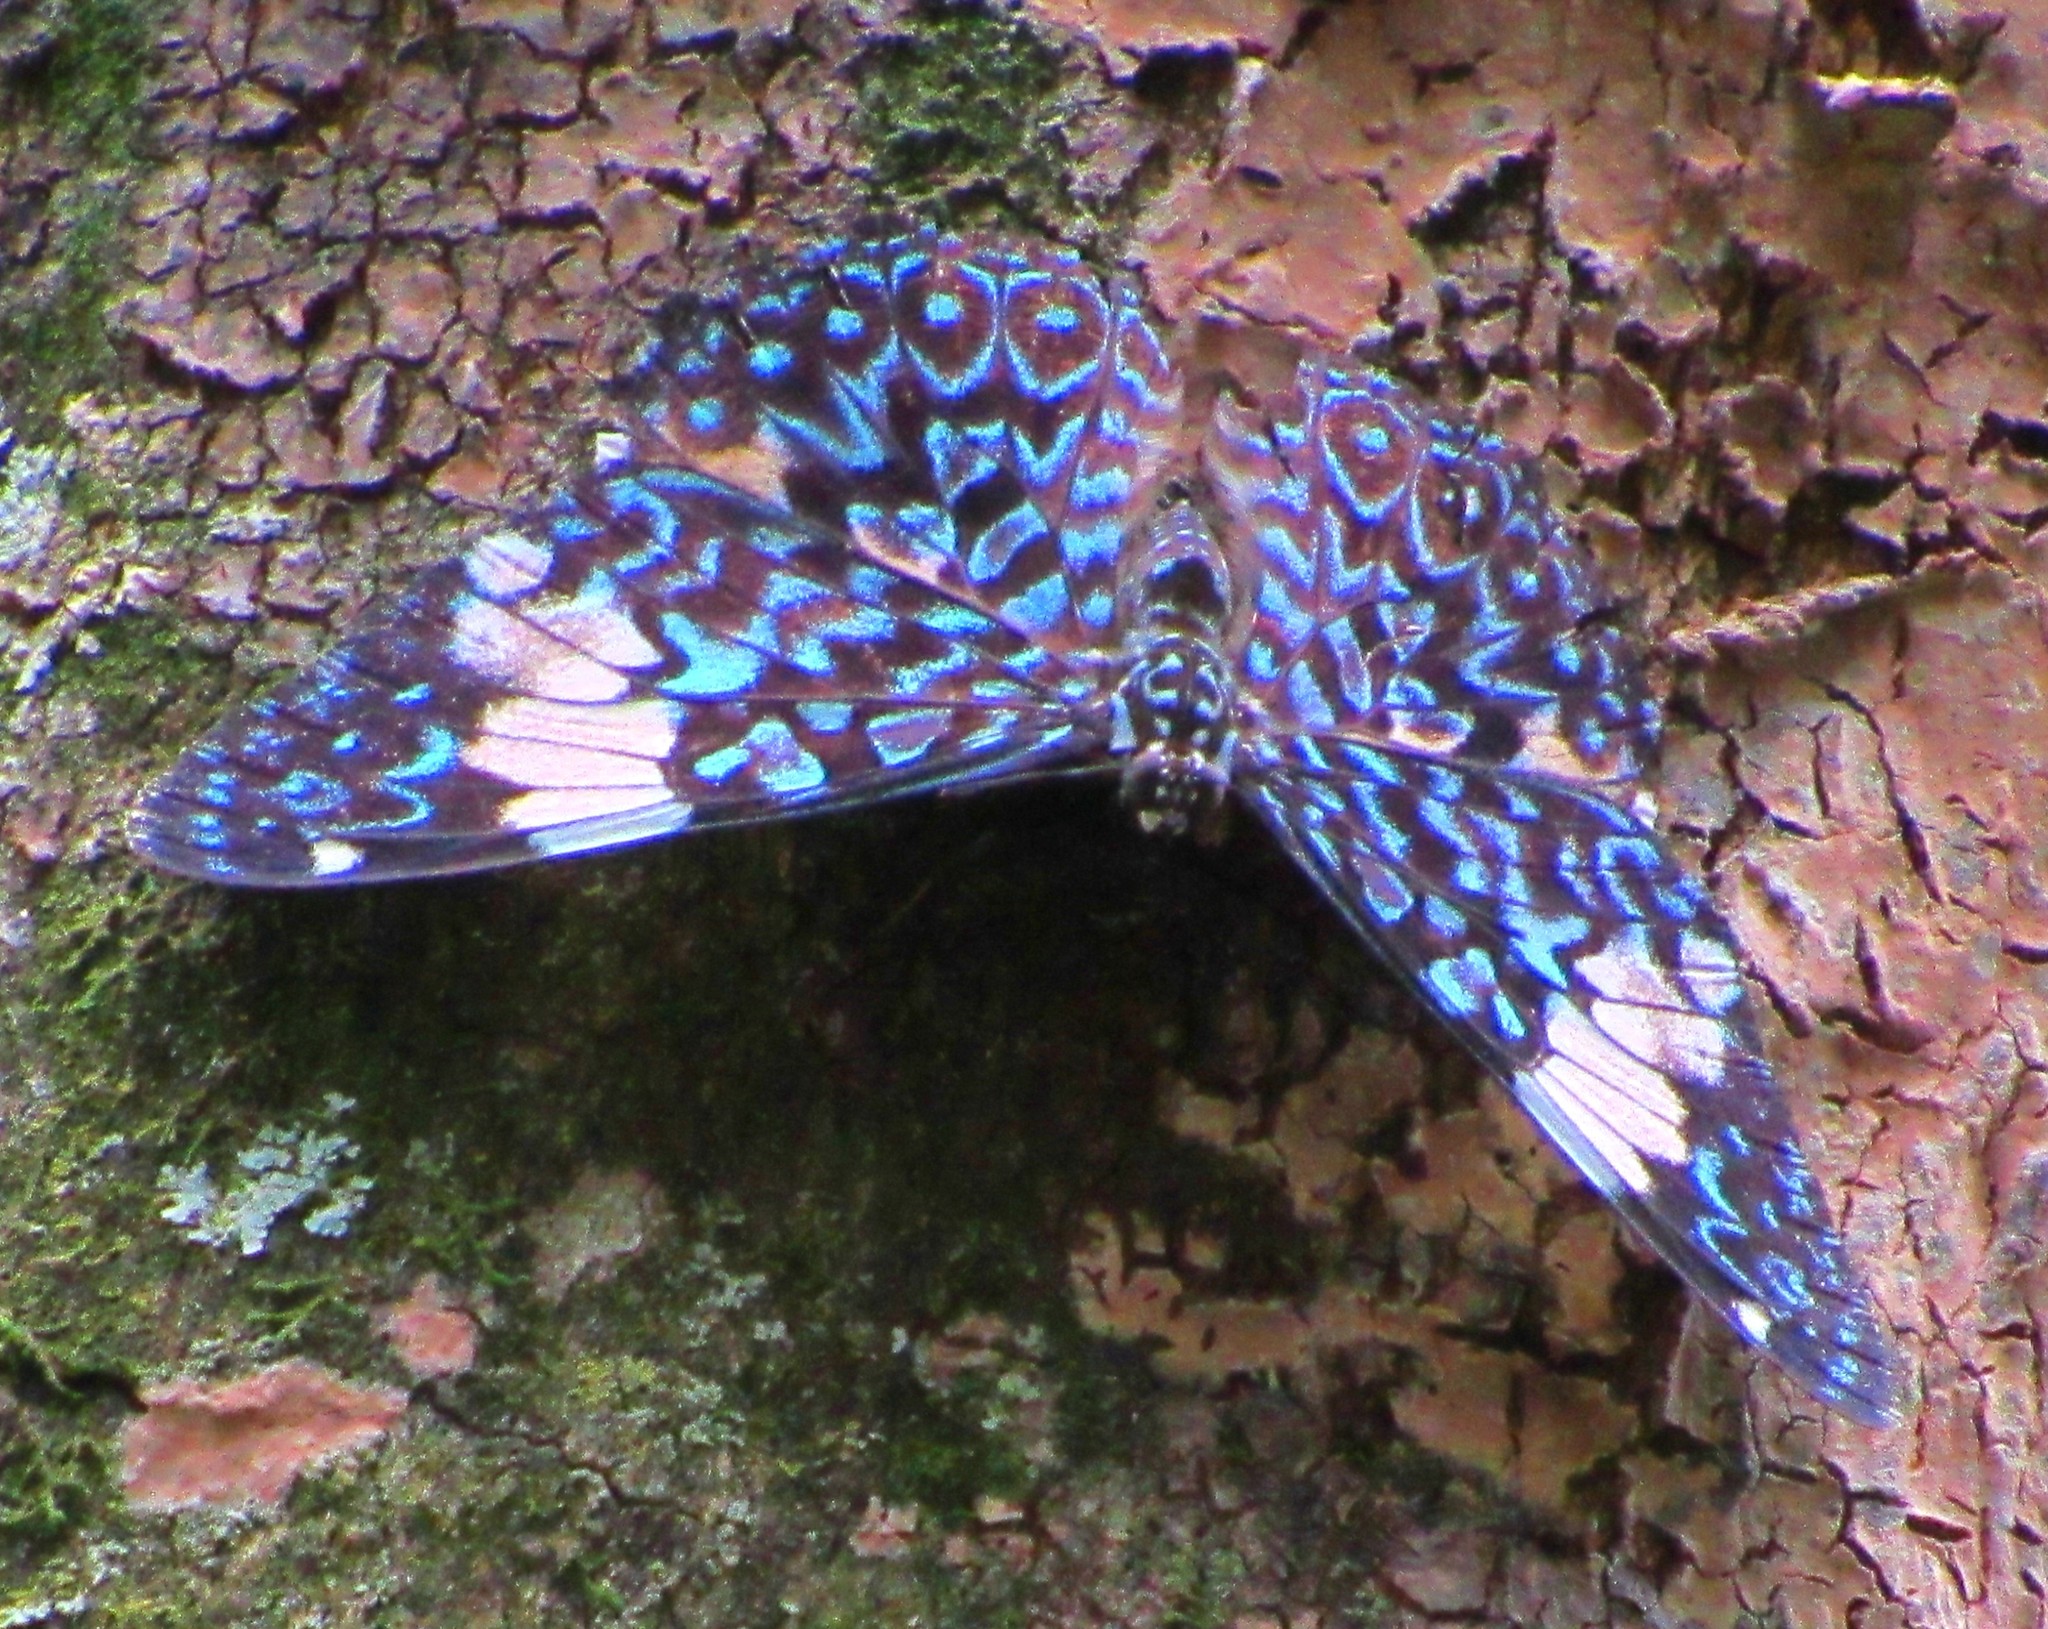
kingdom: Animalia
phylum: Arthropoda
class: Insecta
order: Lepidoptera
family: Nymphalidae
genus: Hamadryas
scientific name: Hamadryas amphinome
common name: Red cracker
